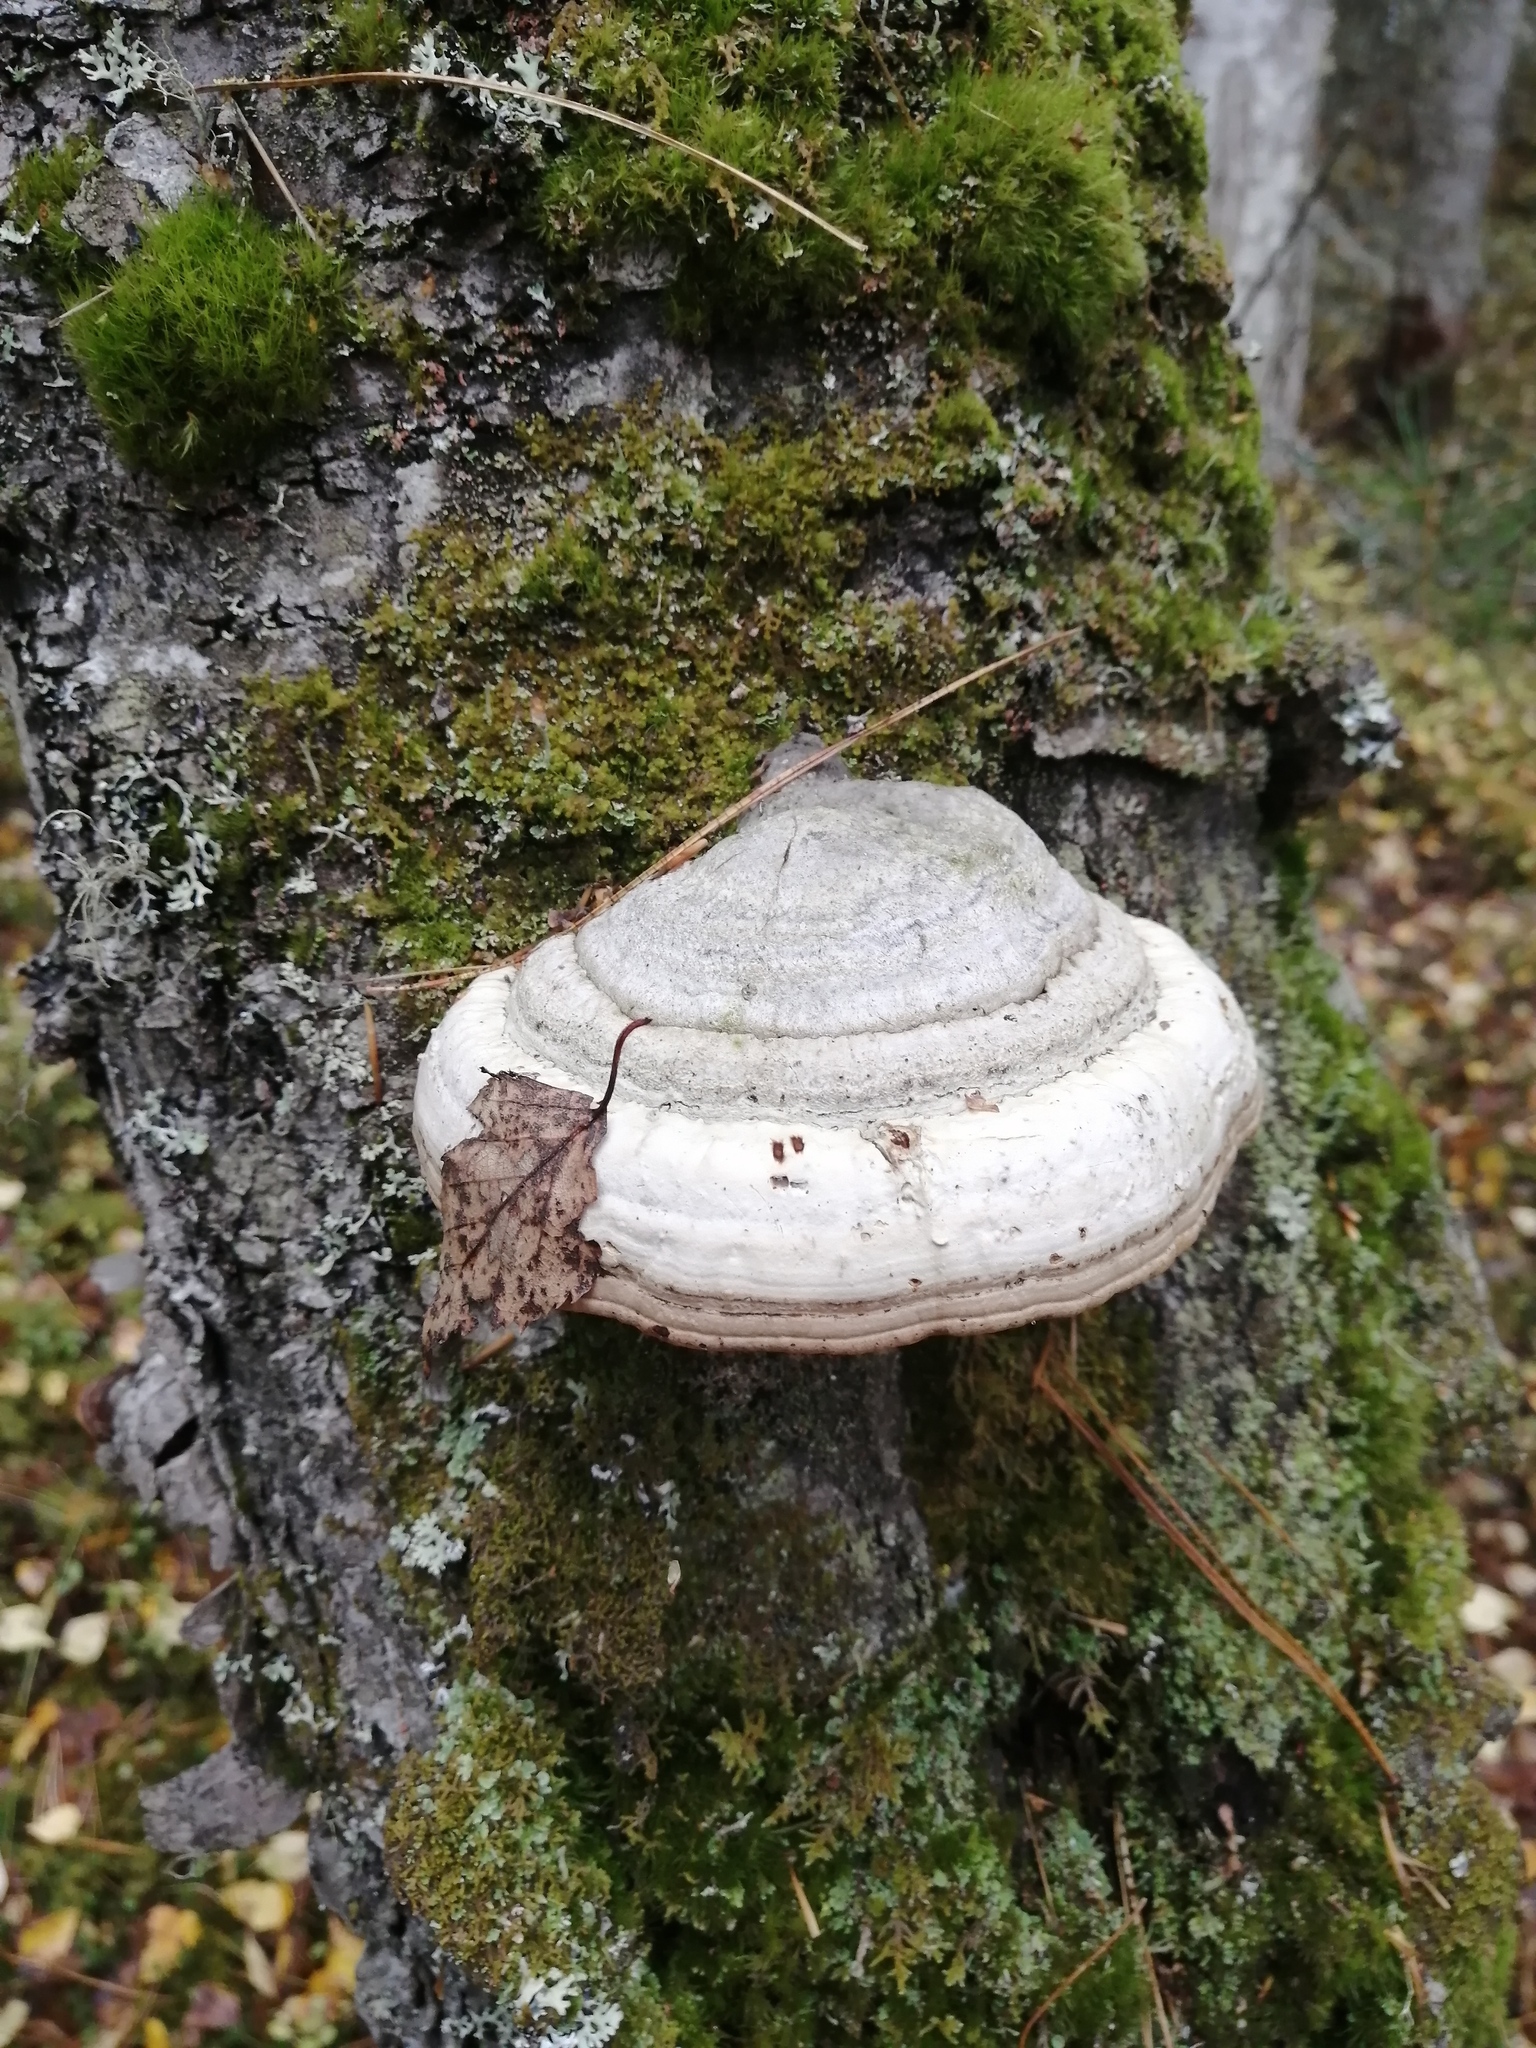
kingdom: Fungi
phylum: Basidiomycota
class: Agaricomycetes
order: Polyporales
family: Polyporaceae
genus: Fomes
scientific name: Fomes fomentarius
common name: Hoof fungus
